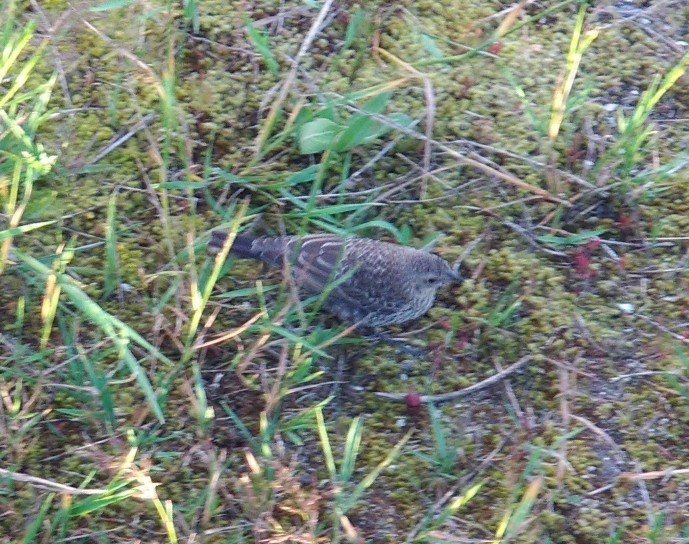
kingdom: Animalia
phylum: Chordata
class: Aves
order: Passeriformes
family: Icteridae
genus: Molothrus
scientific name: Molothrus ater
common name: Brown-headed cowbird
